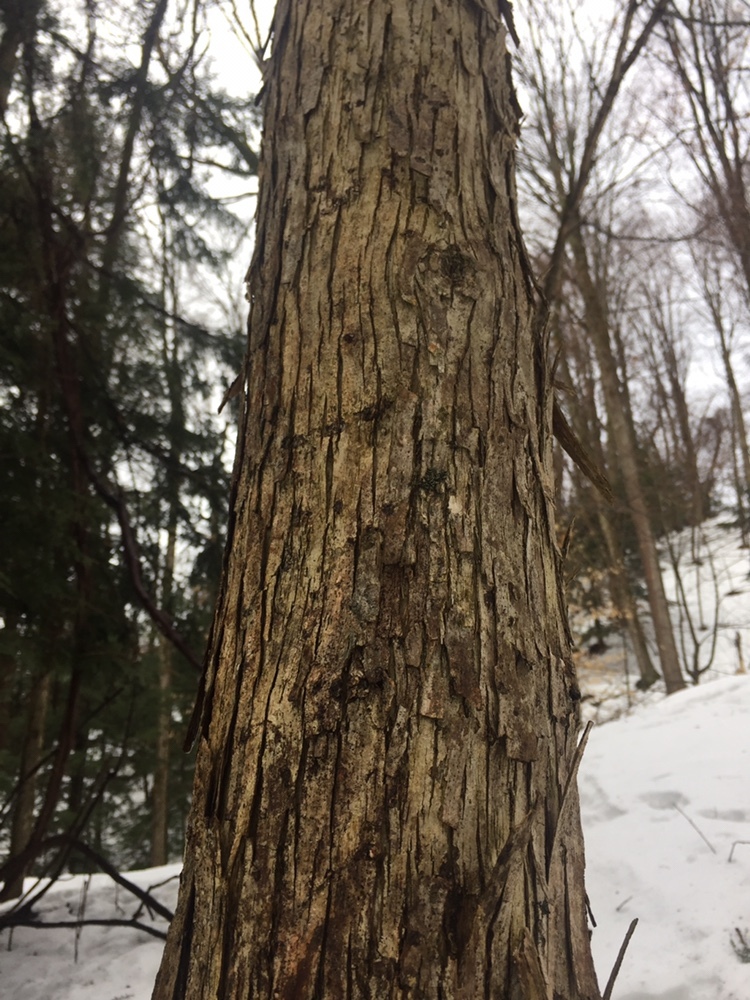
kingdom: Plantae
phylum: Tracheophyta
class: Magnoliopsida
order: Fagales
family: Betulaceae
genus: Ostrya
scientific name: Ostrya virginiana
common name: Ironwood
